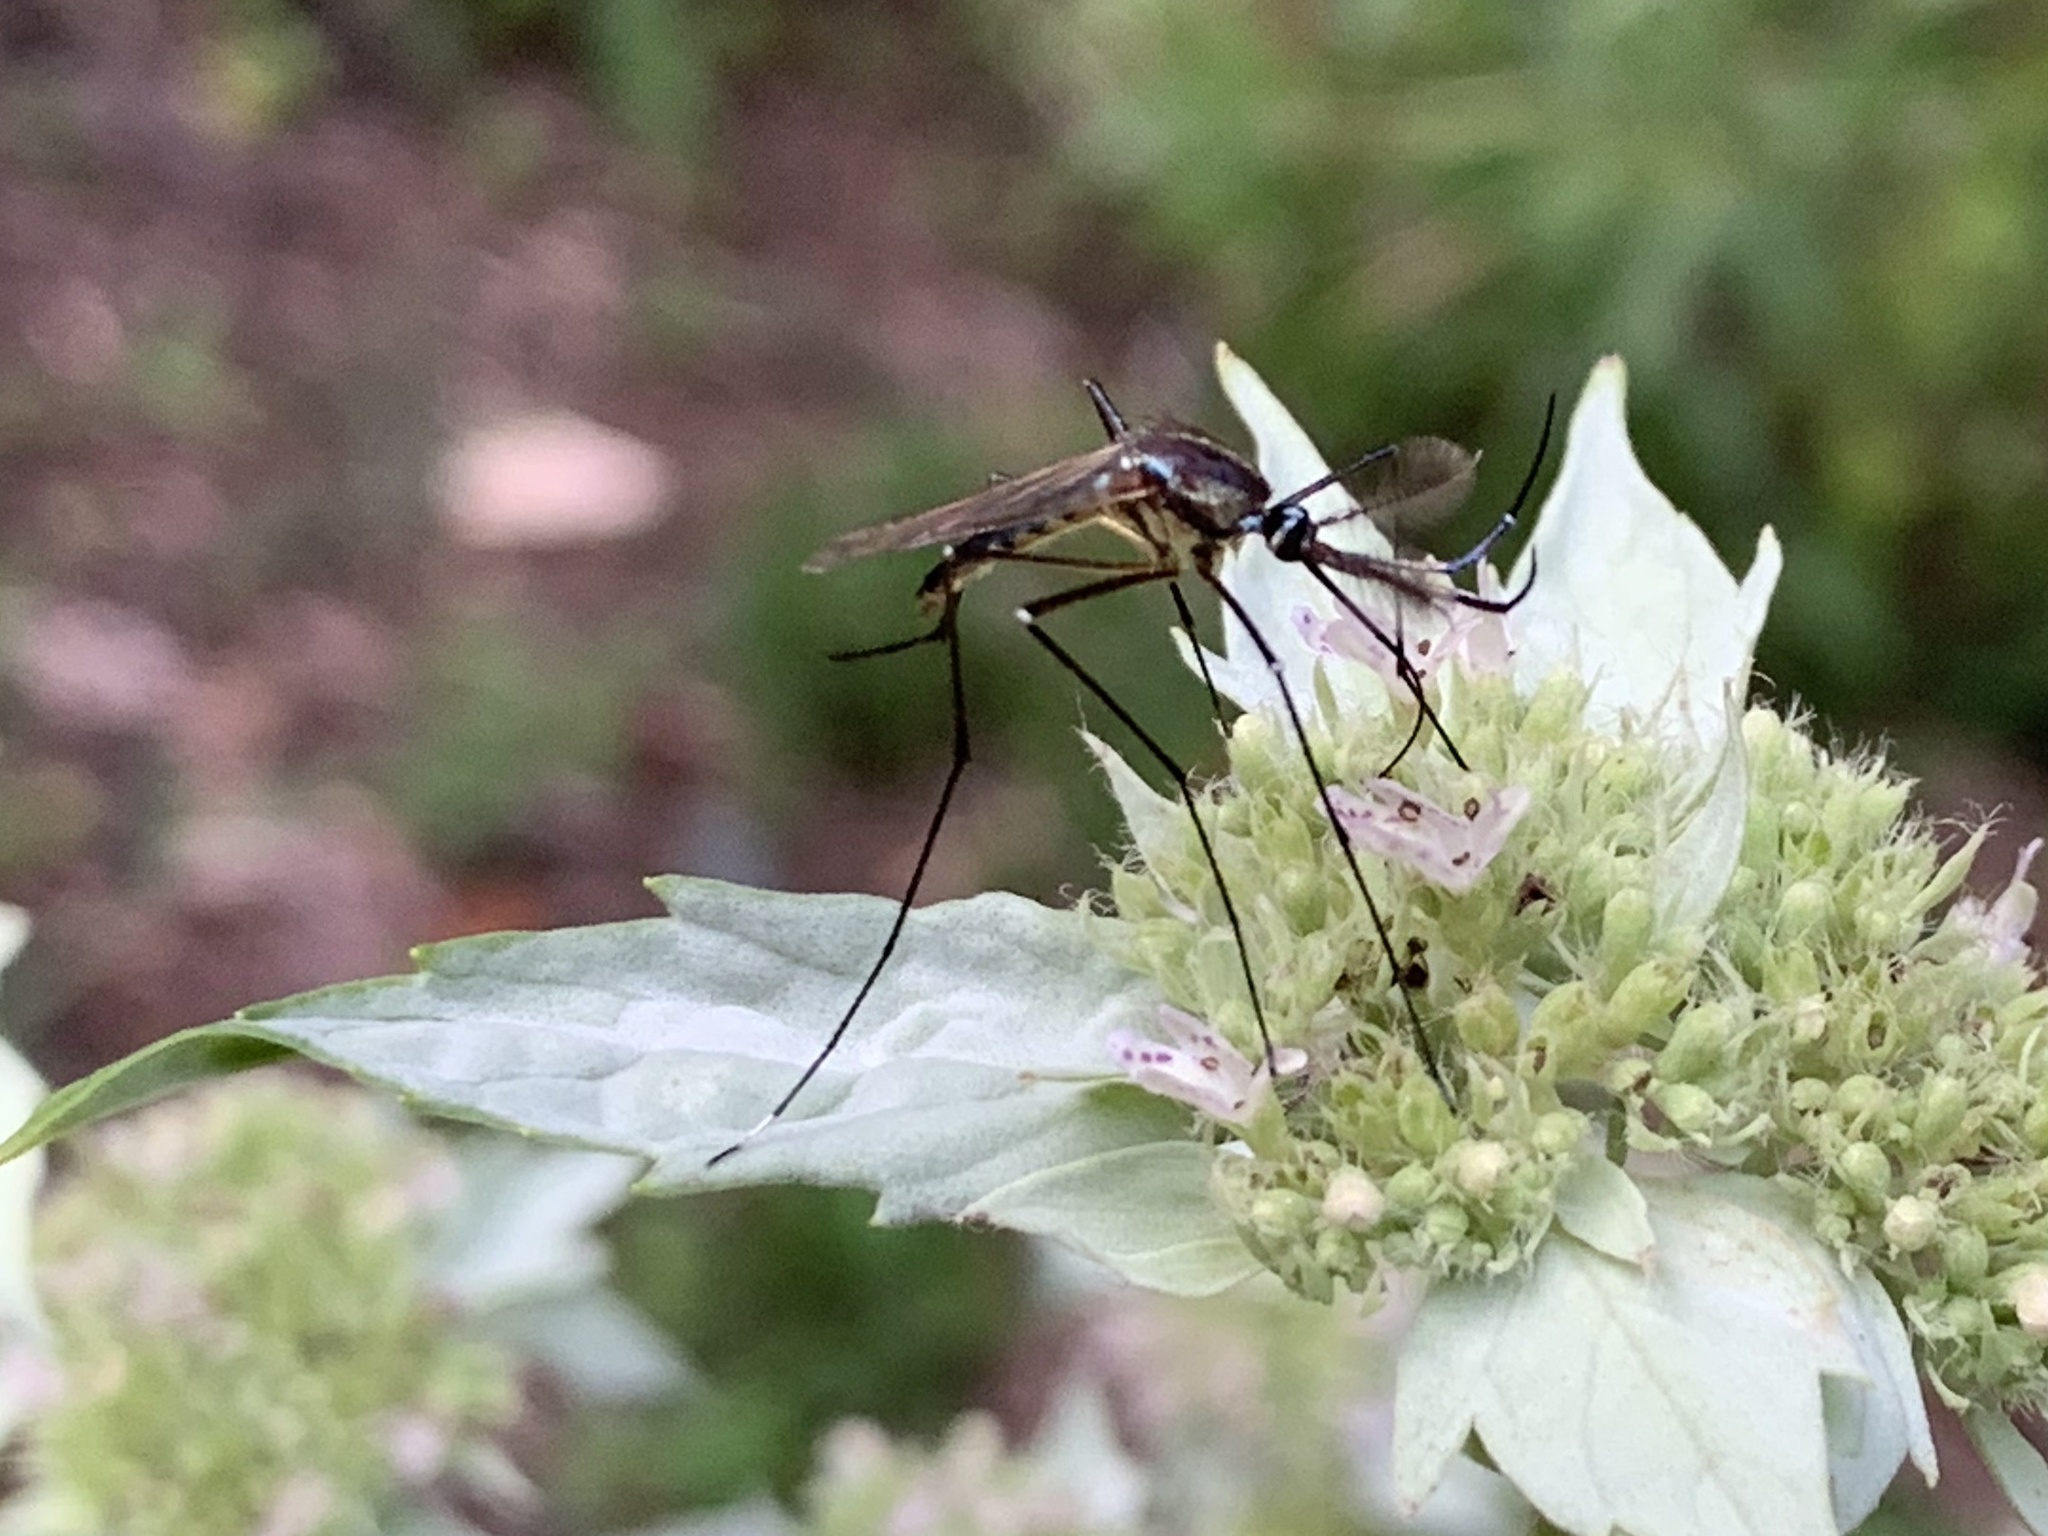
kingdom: Animalia
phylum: Arthropoda
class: Insecta
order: Diptera
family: Culicidae
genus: Toxorhynchites
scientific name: Toxorhynchites rutilus
